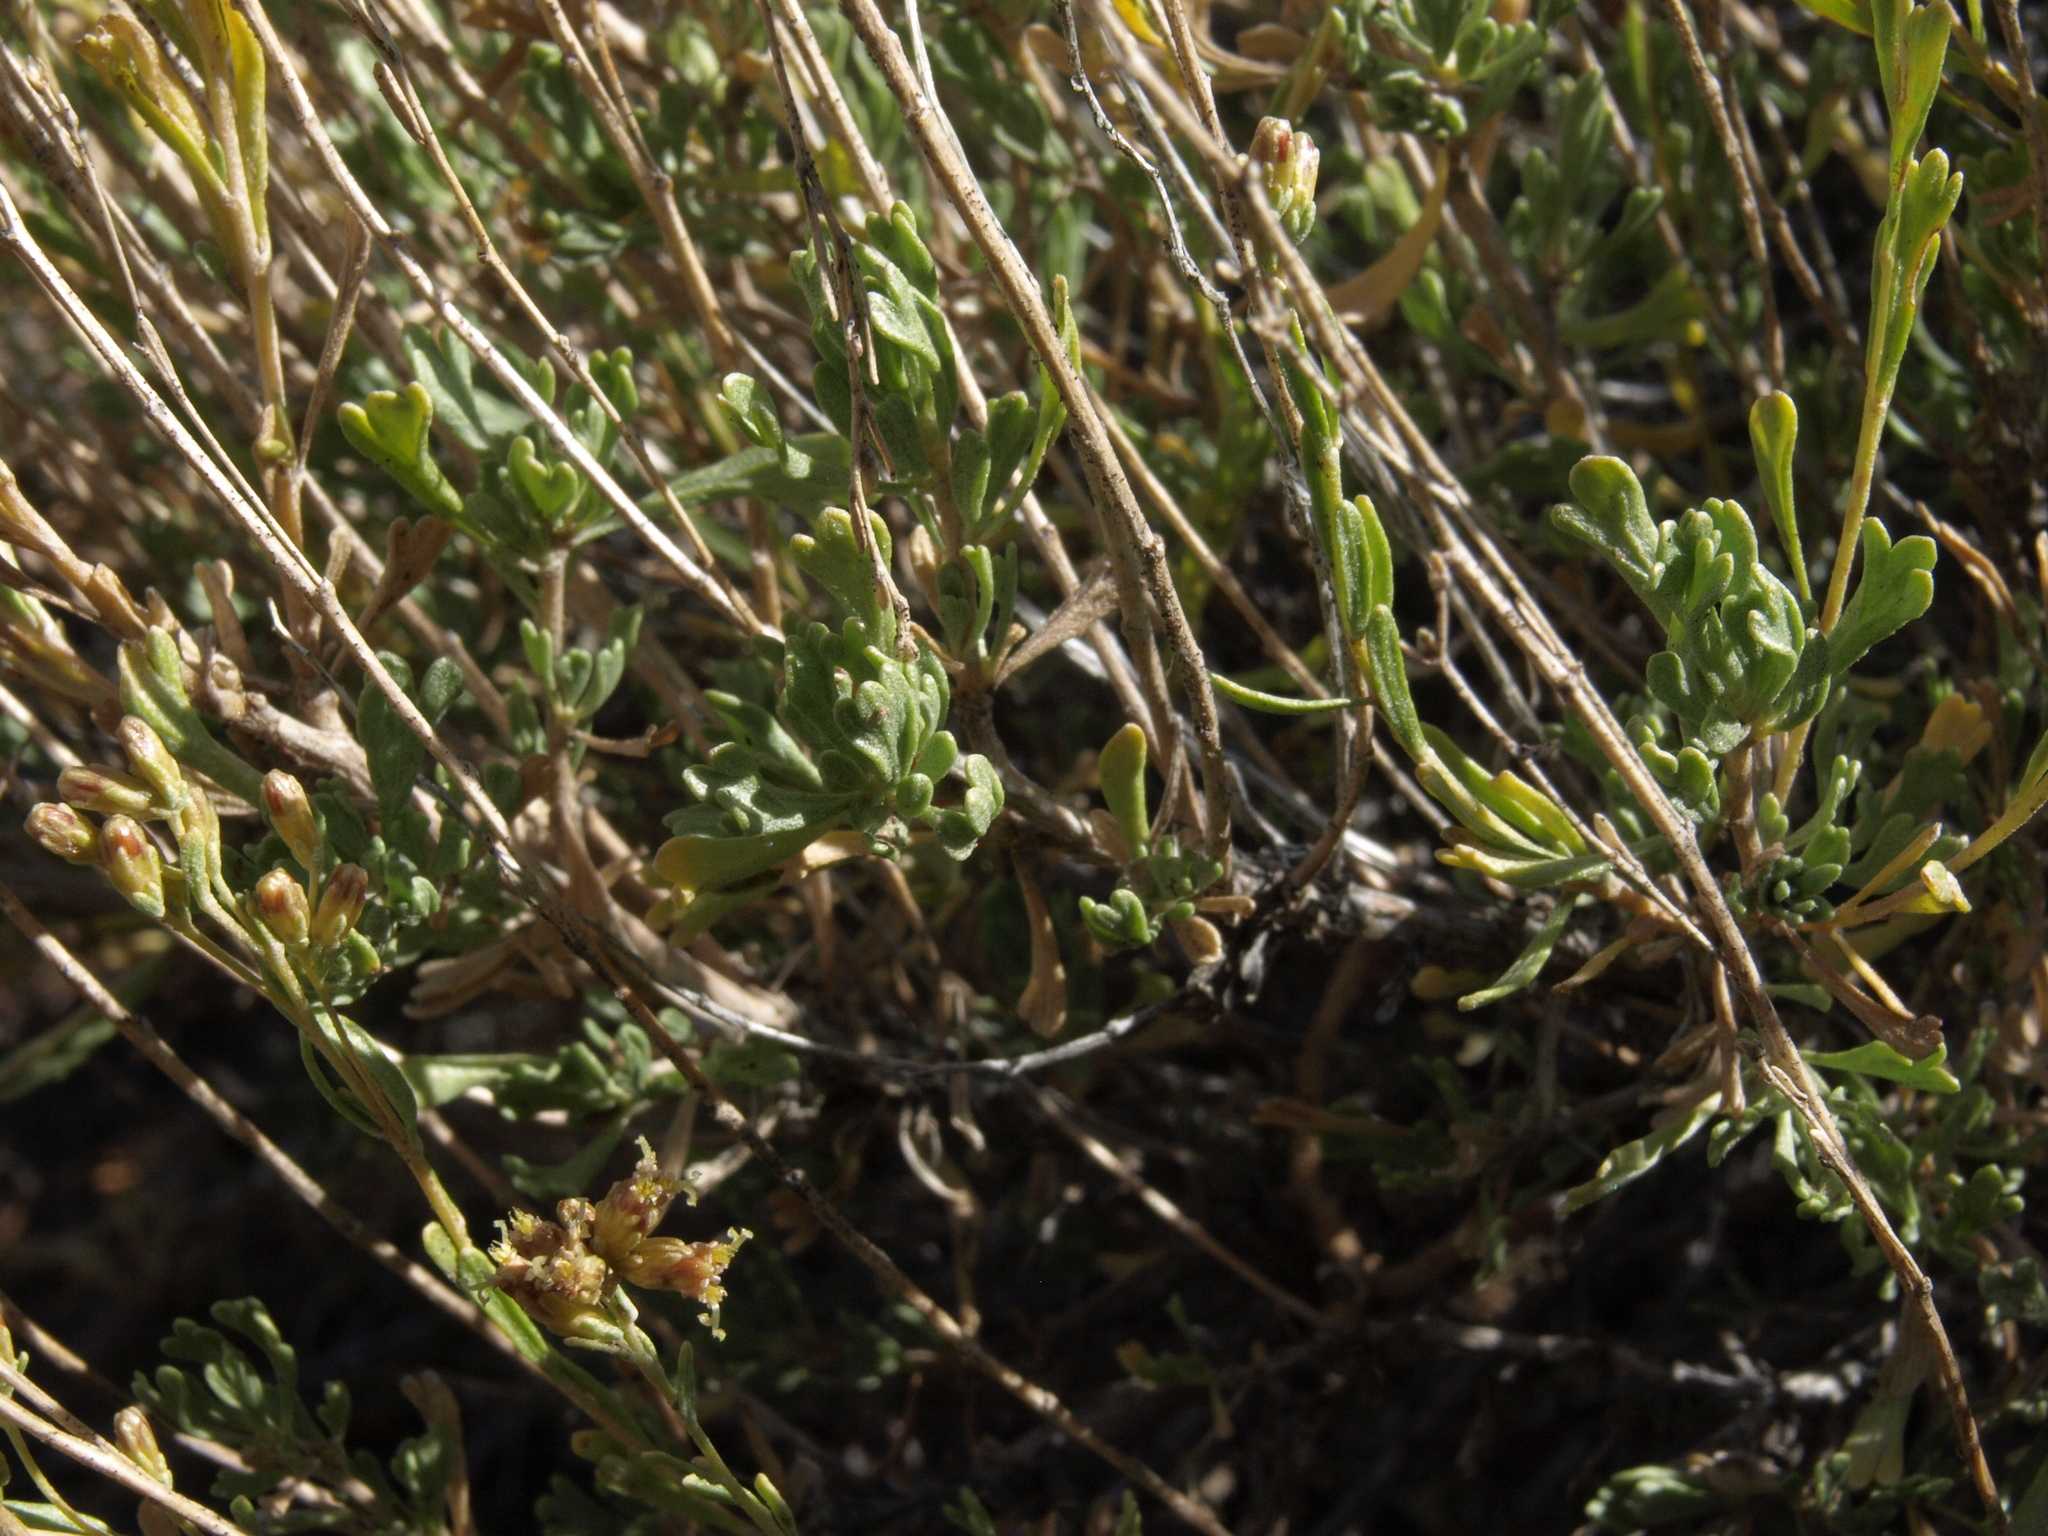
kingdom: Plantae
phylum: Tracheophyta
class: Magnoliopsida
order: Asterales
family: Asteraceae
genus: Artemisia
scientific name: Artemisia nova
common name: Black-sage
